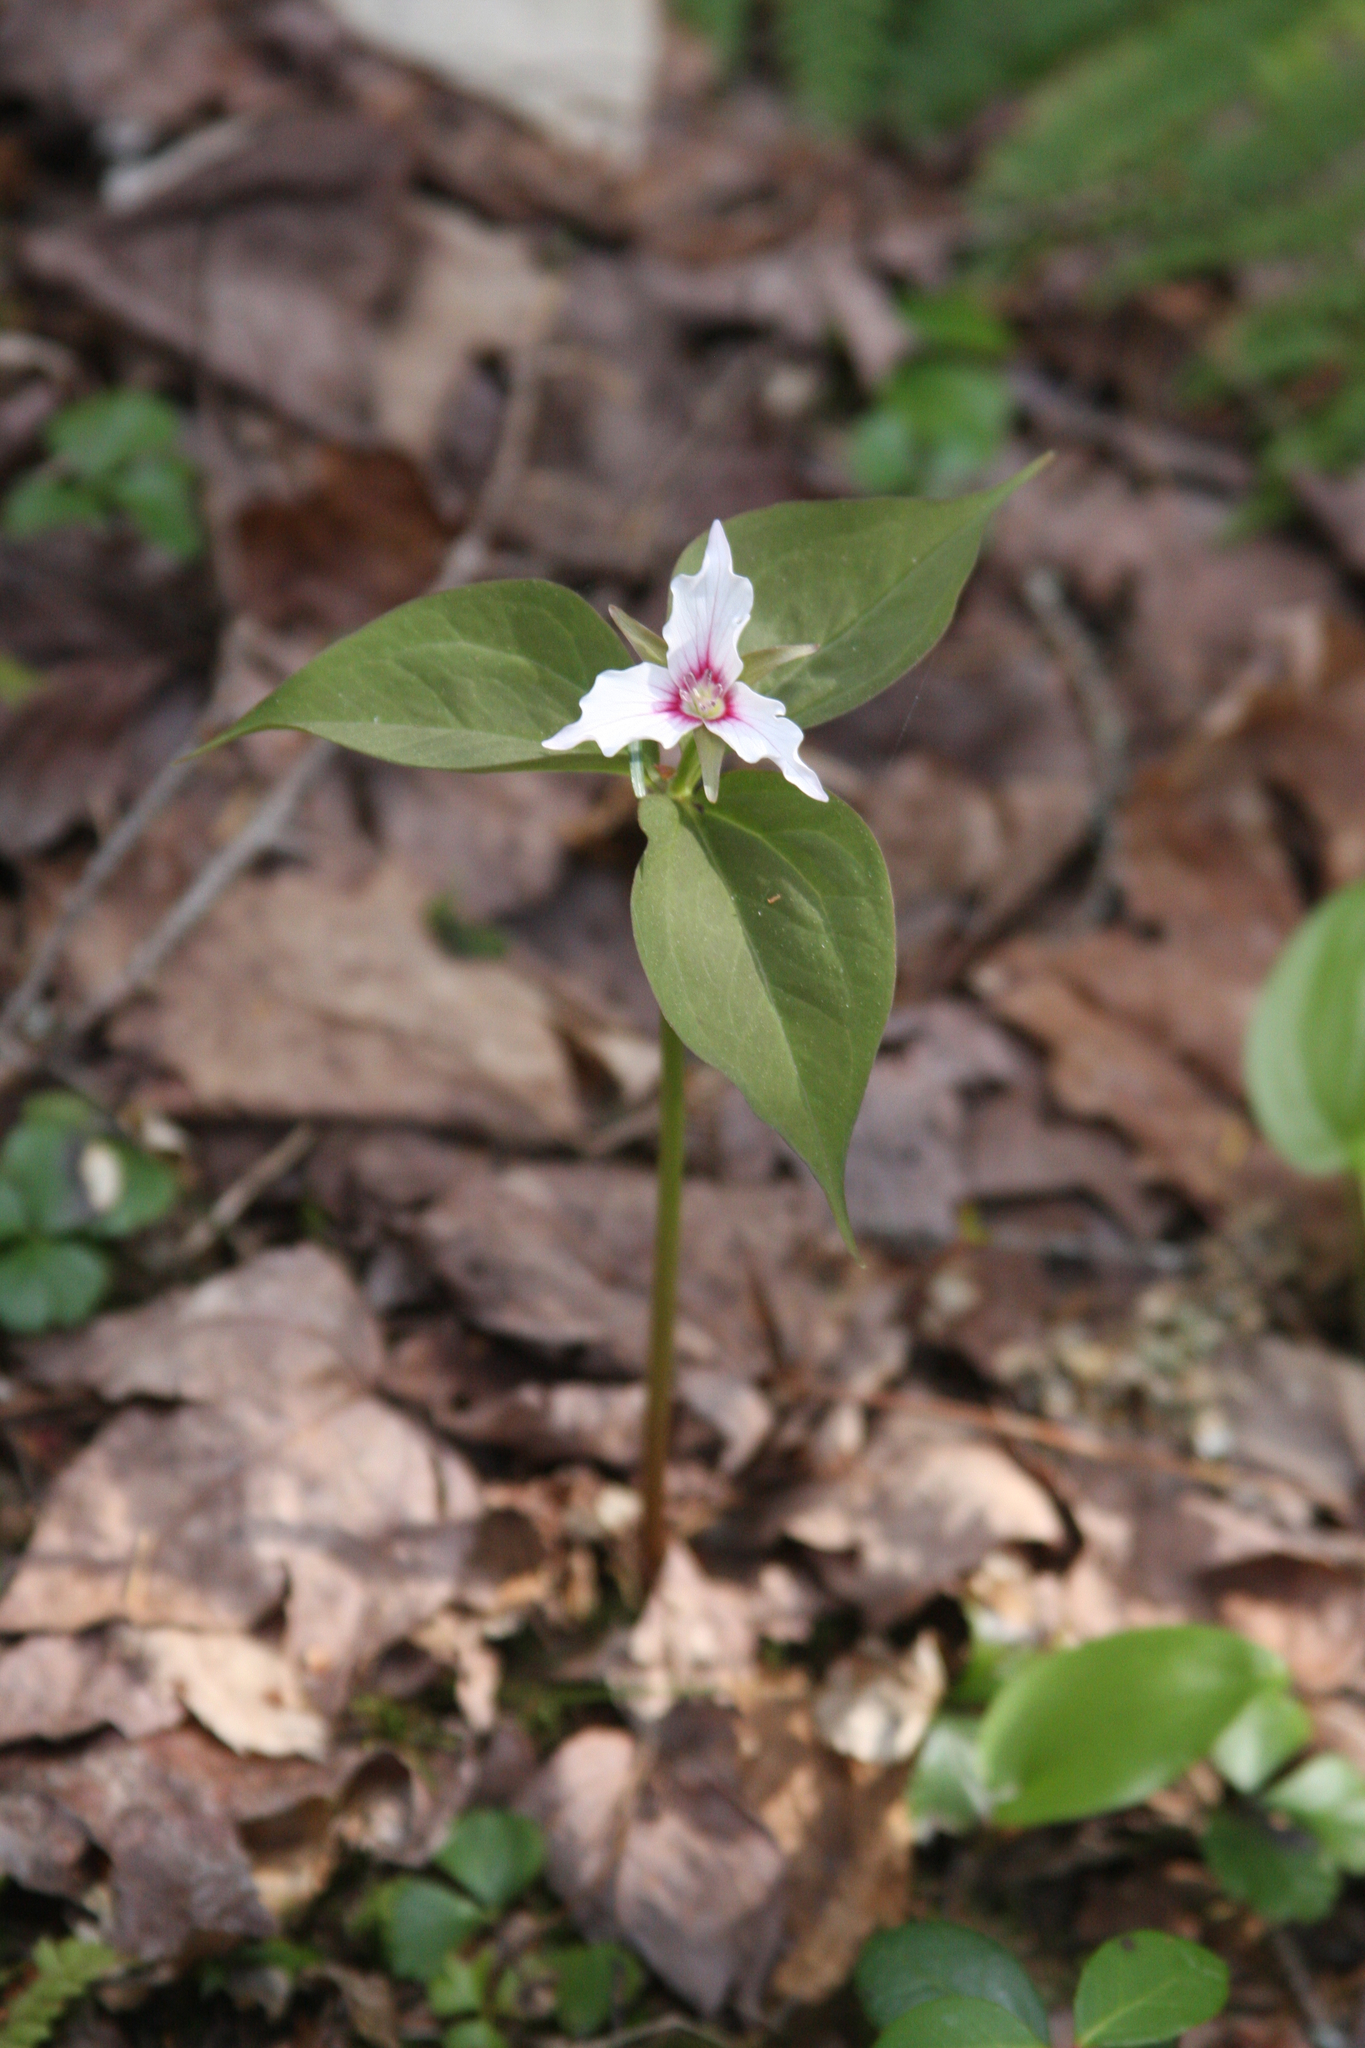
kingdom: Plantae
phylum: Tracheophyta
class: Liliopsida
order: Liliales
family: Melanthiaceae
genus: Trillium
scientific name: Trillium undulatum
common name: Paint trillium
